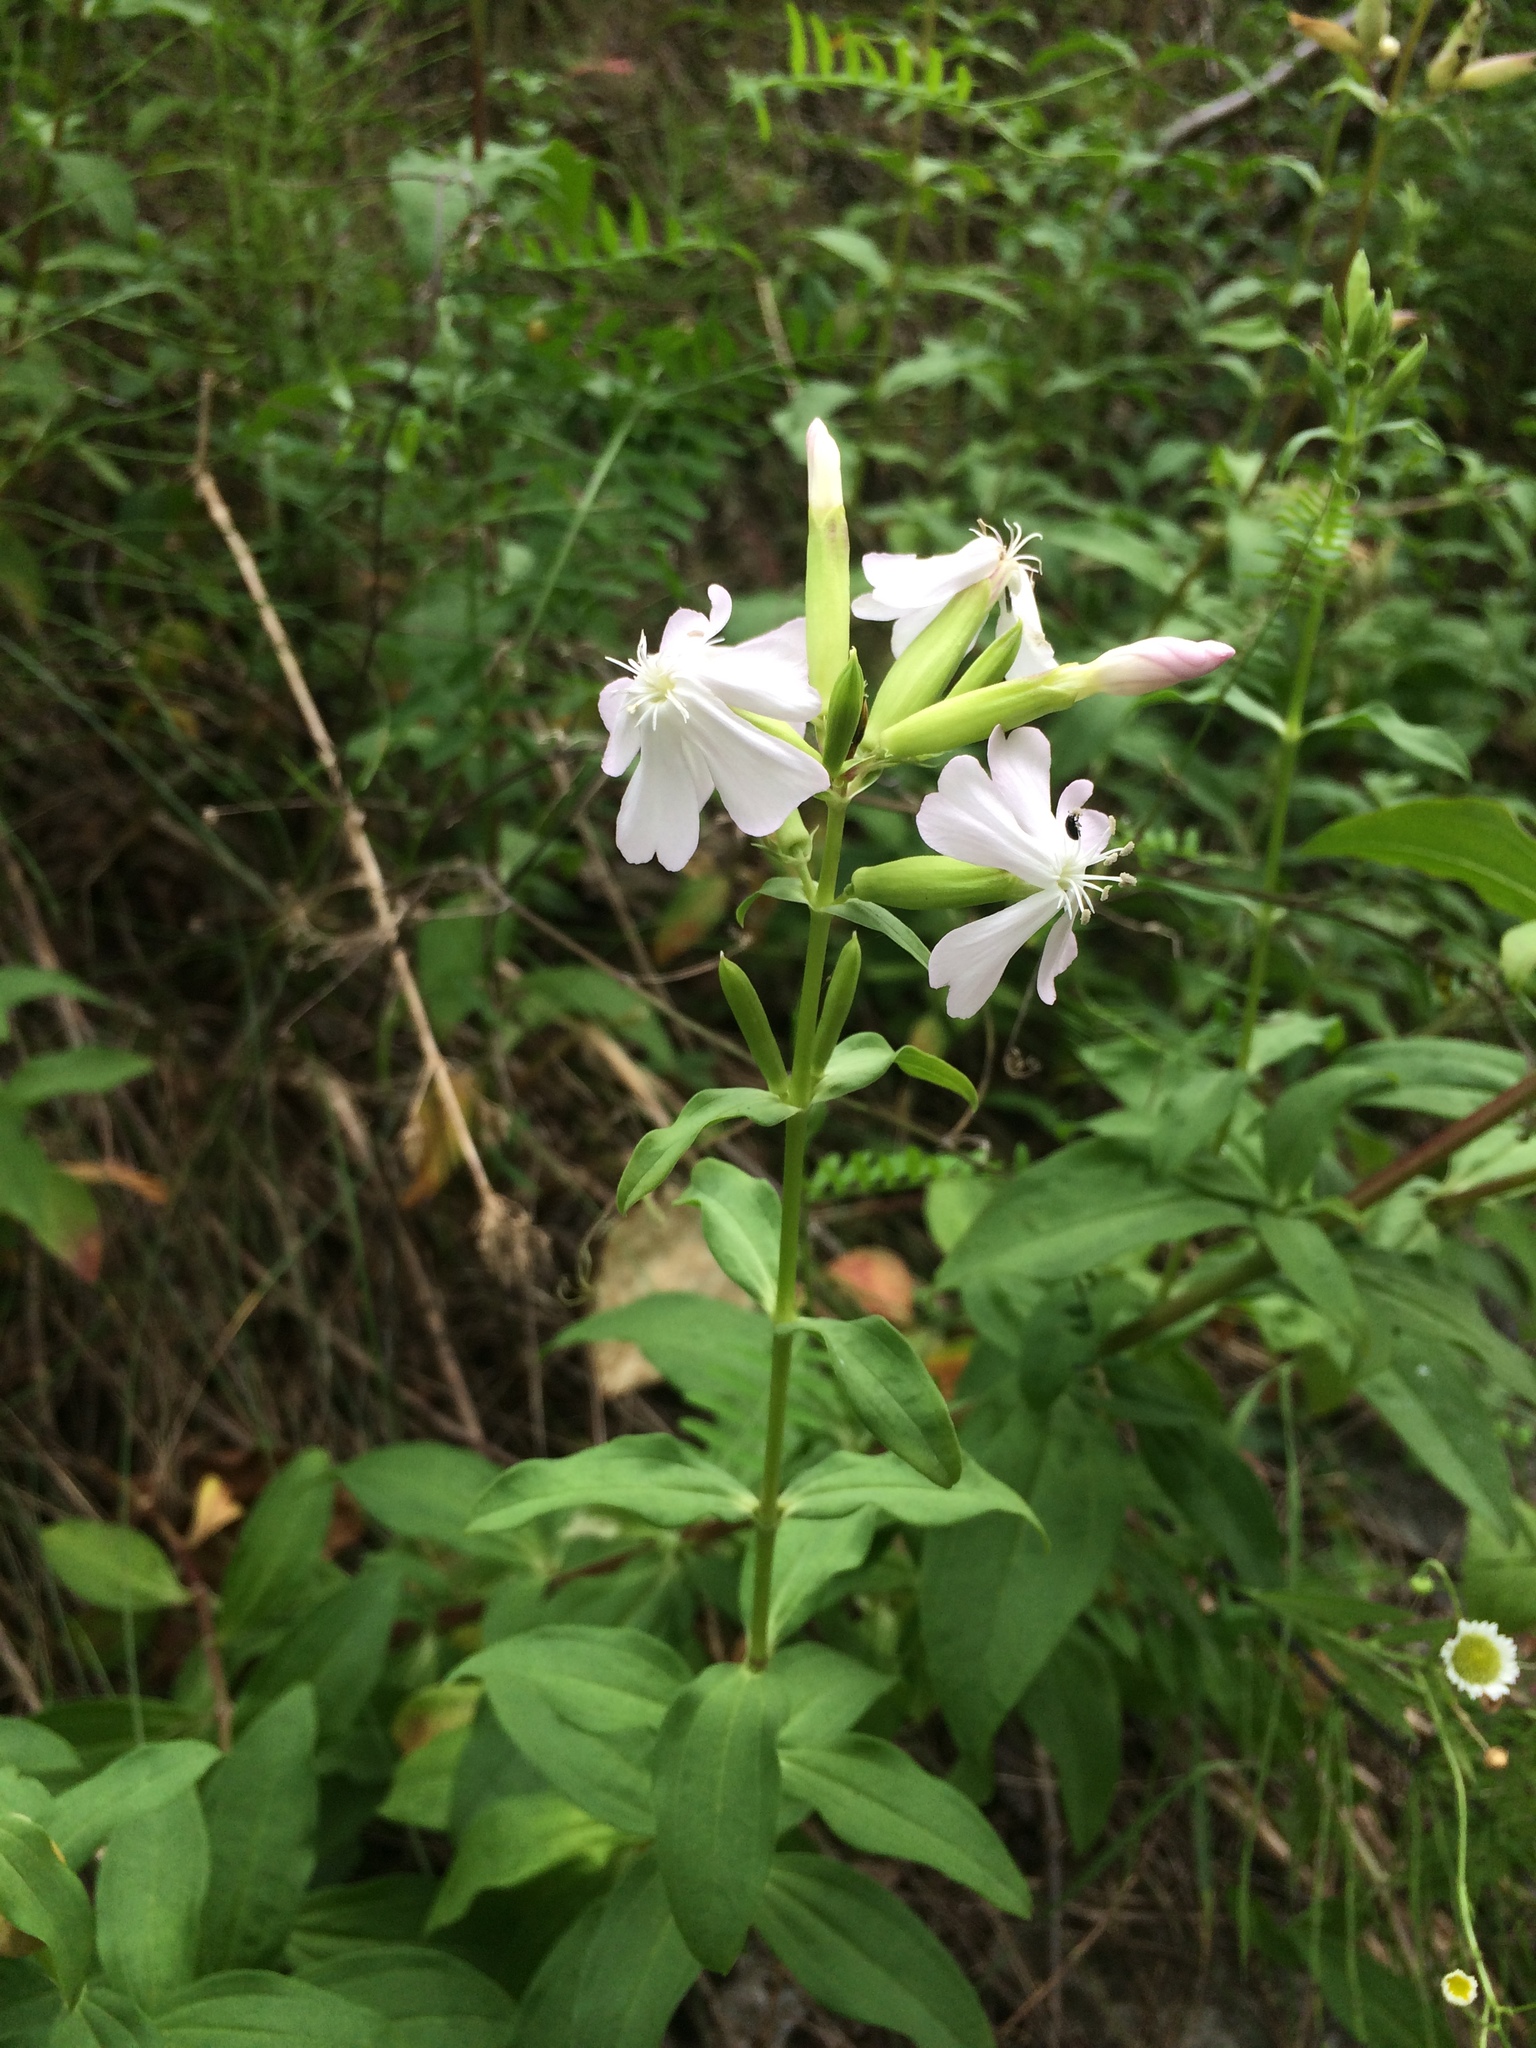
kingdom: Plantae
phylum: Tracheophyta
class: Magnoliopsida
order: Caryophyllales
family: Caryophyllaceae
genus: Saponaria
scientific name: Saponaria officinalis
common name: Soapwort
